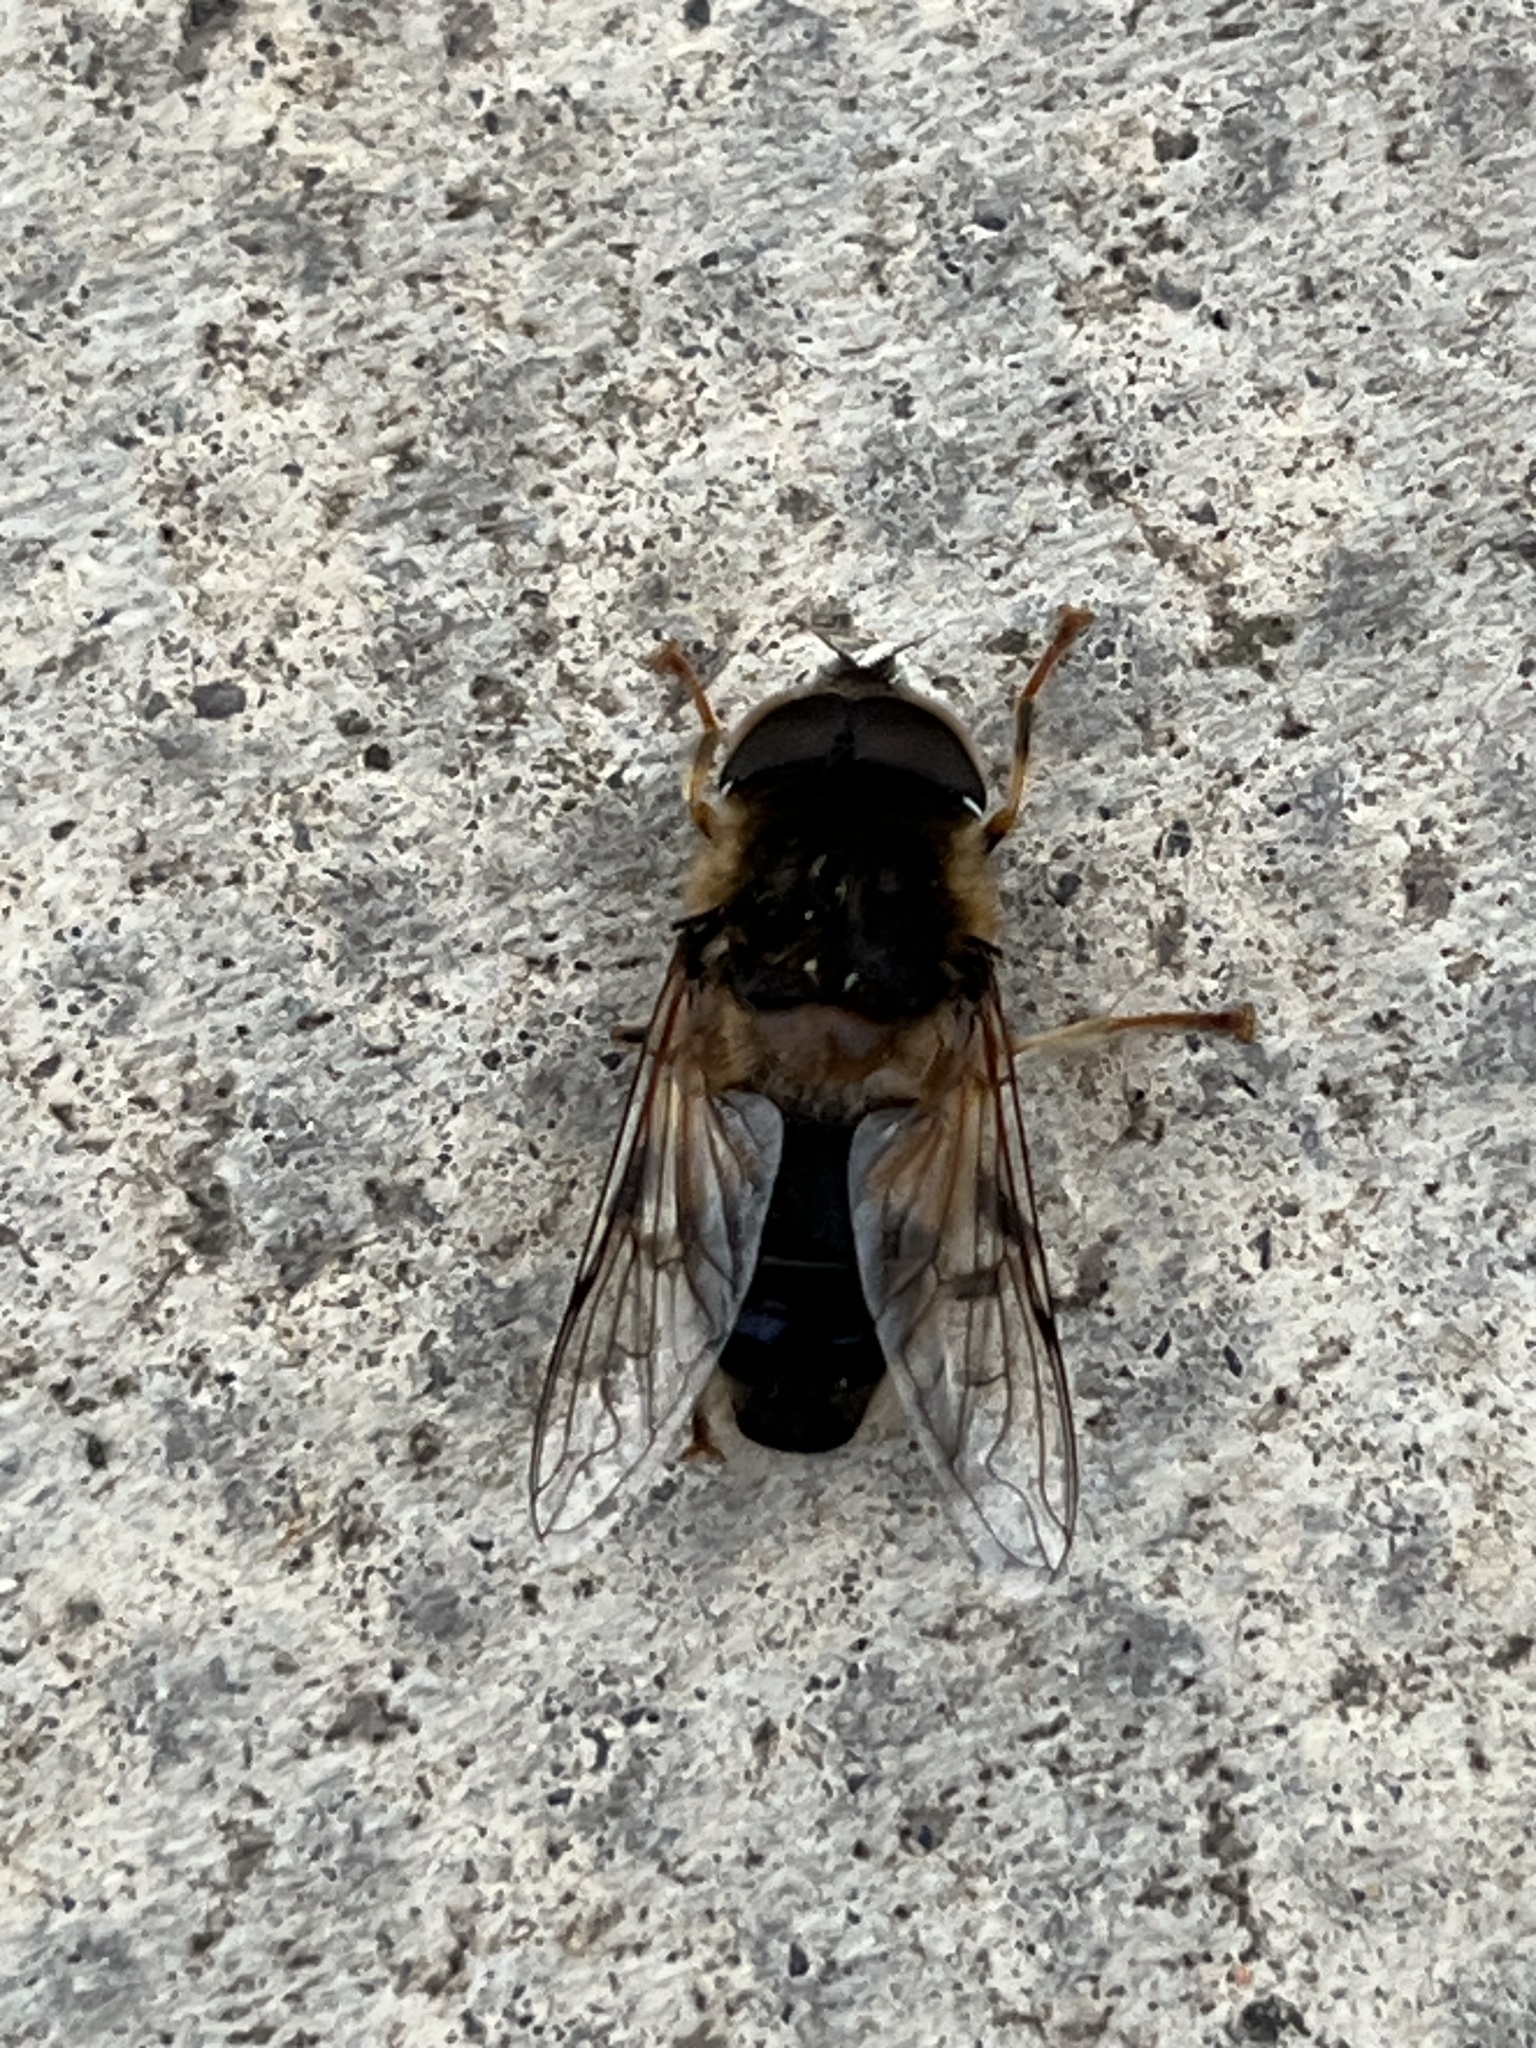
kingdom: Animalia
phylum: Arthropoda
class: Insecta
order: Diptera
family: Syrphidae
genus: Eristalis
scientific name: Eristalis pertinax
